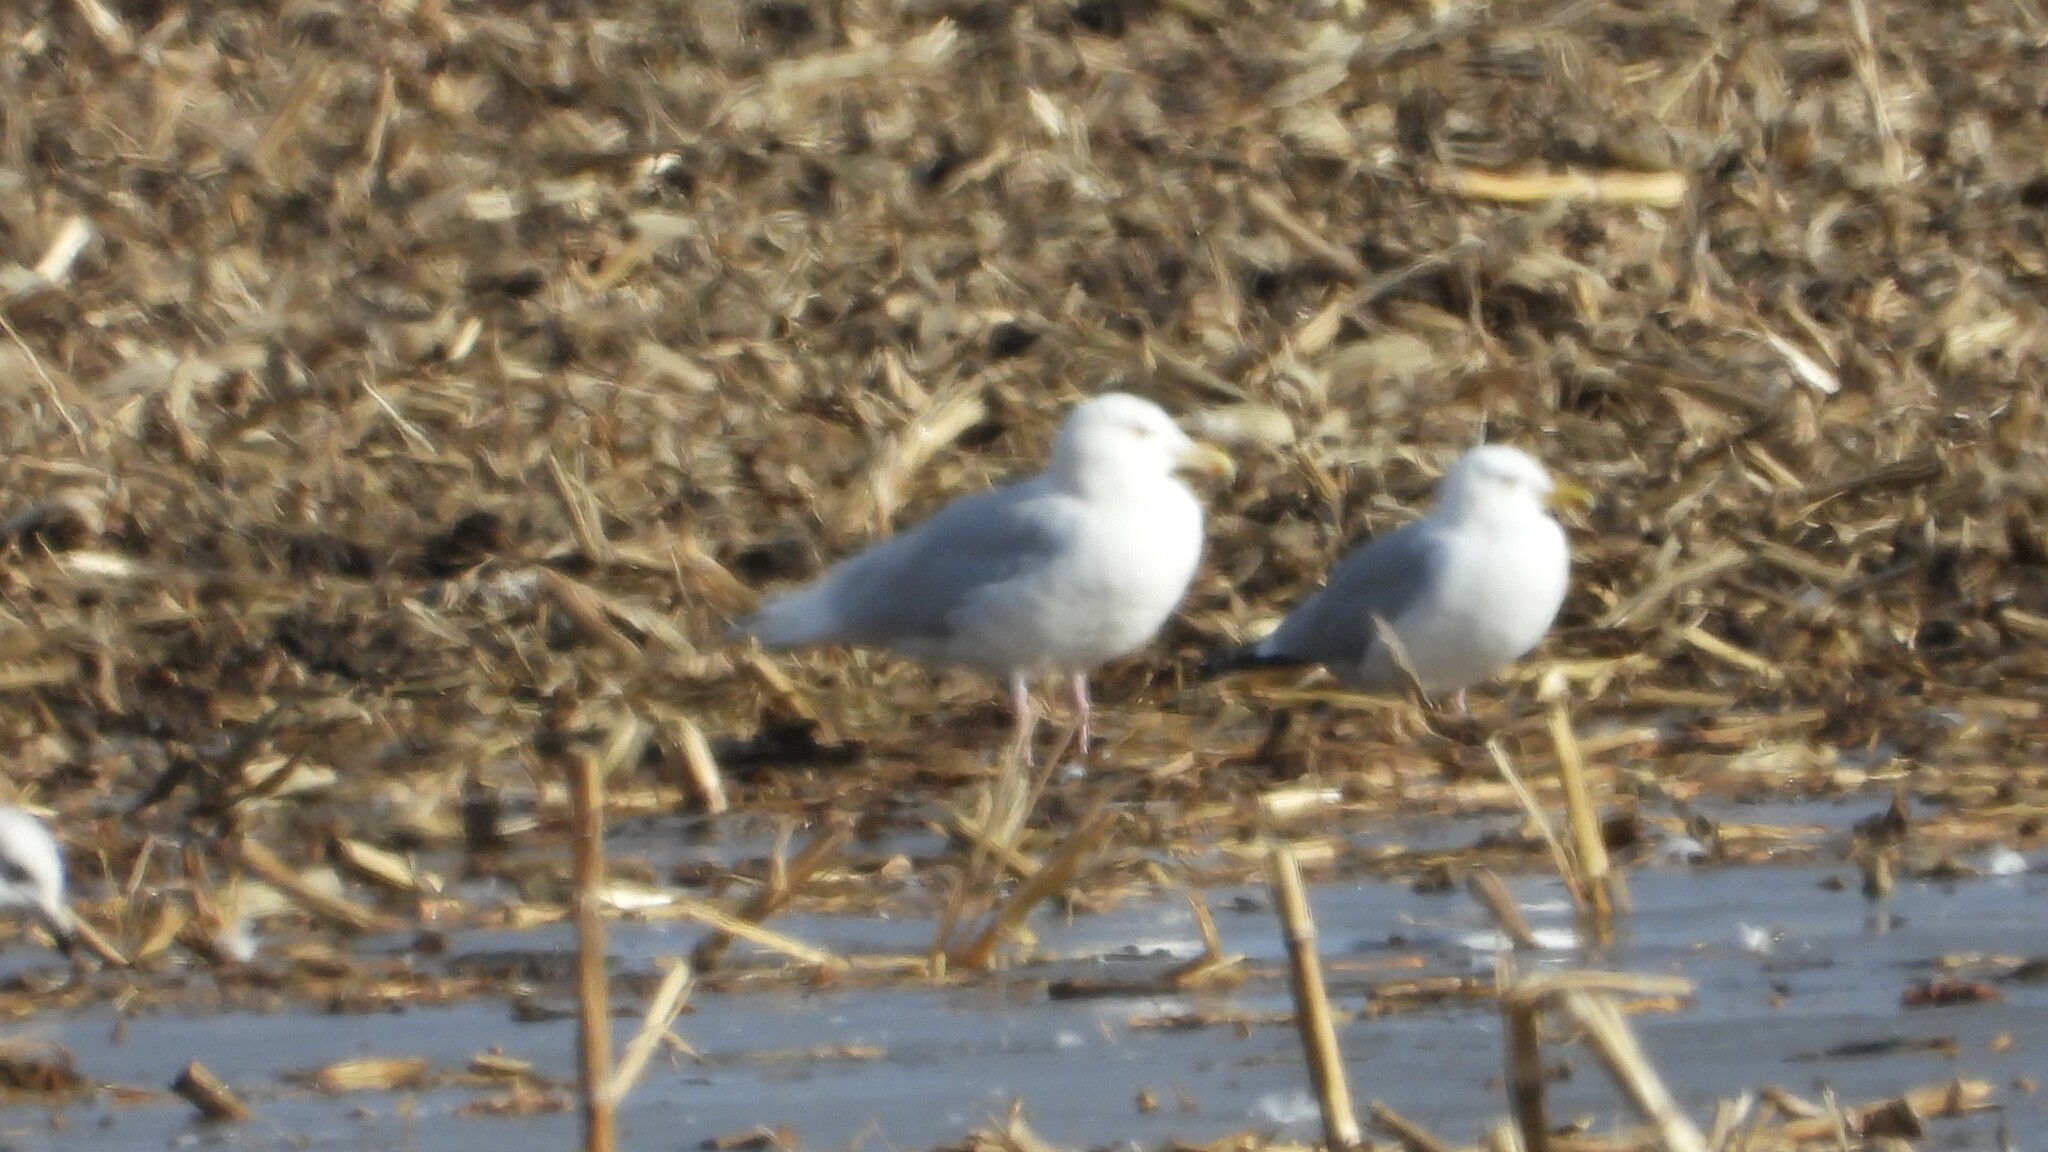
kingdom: Animalia
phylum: Chordata
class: Aves
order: Charadriiformes
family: Laridae
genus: Larus
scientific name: Larus hyperboreus
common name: Glaucous gull
